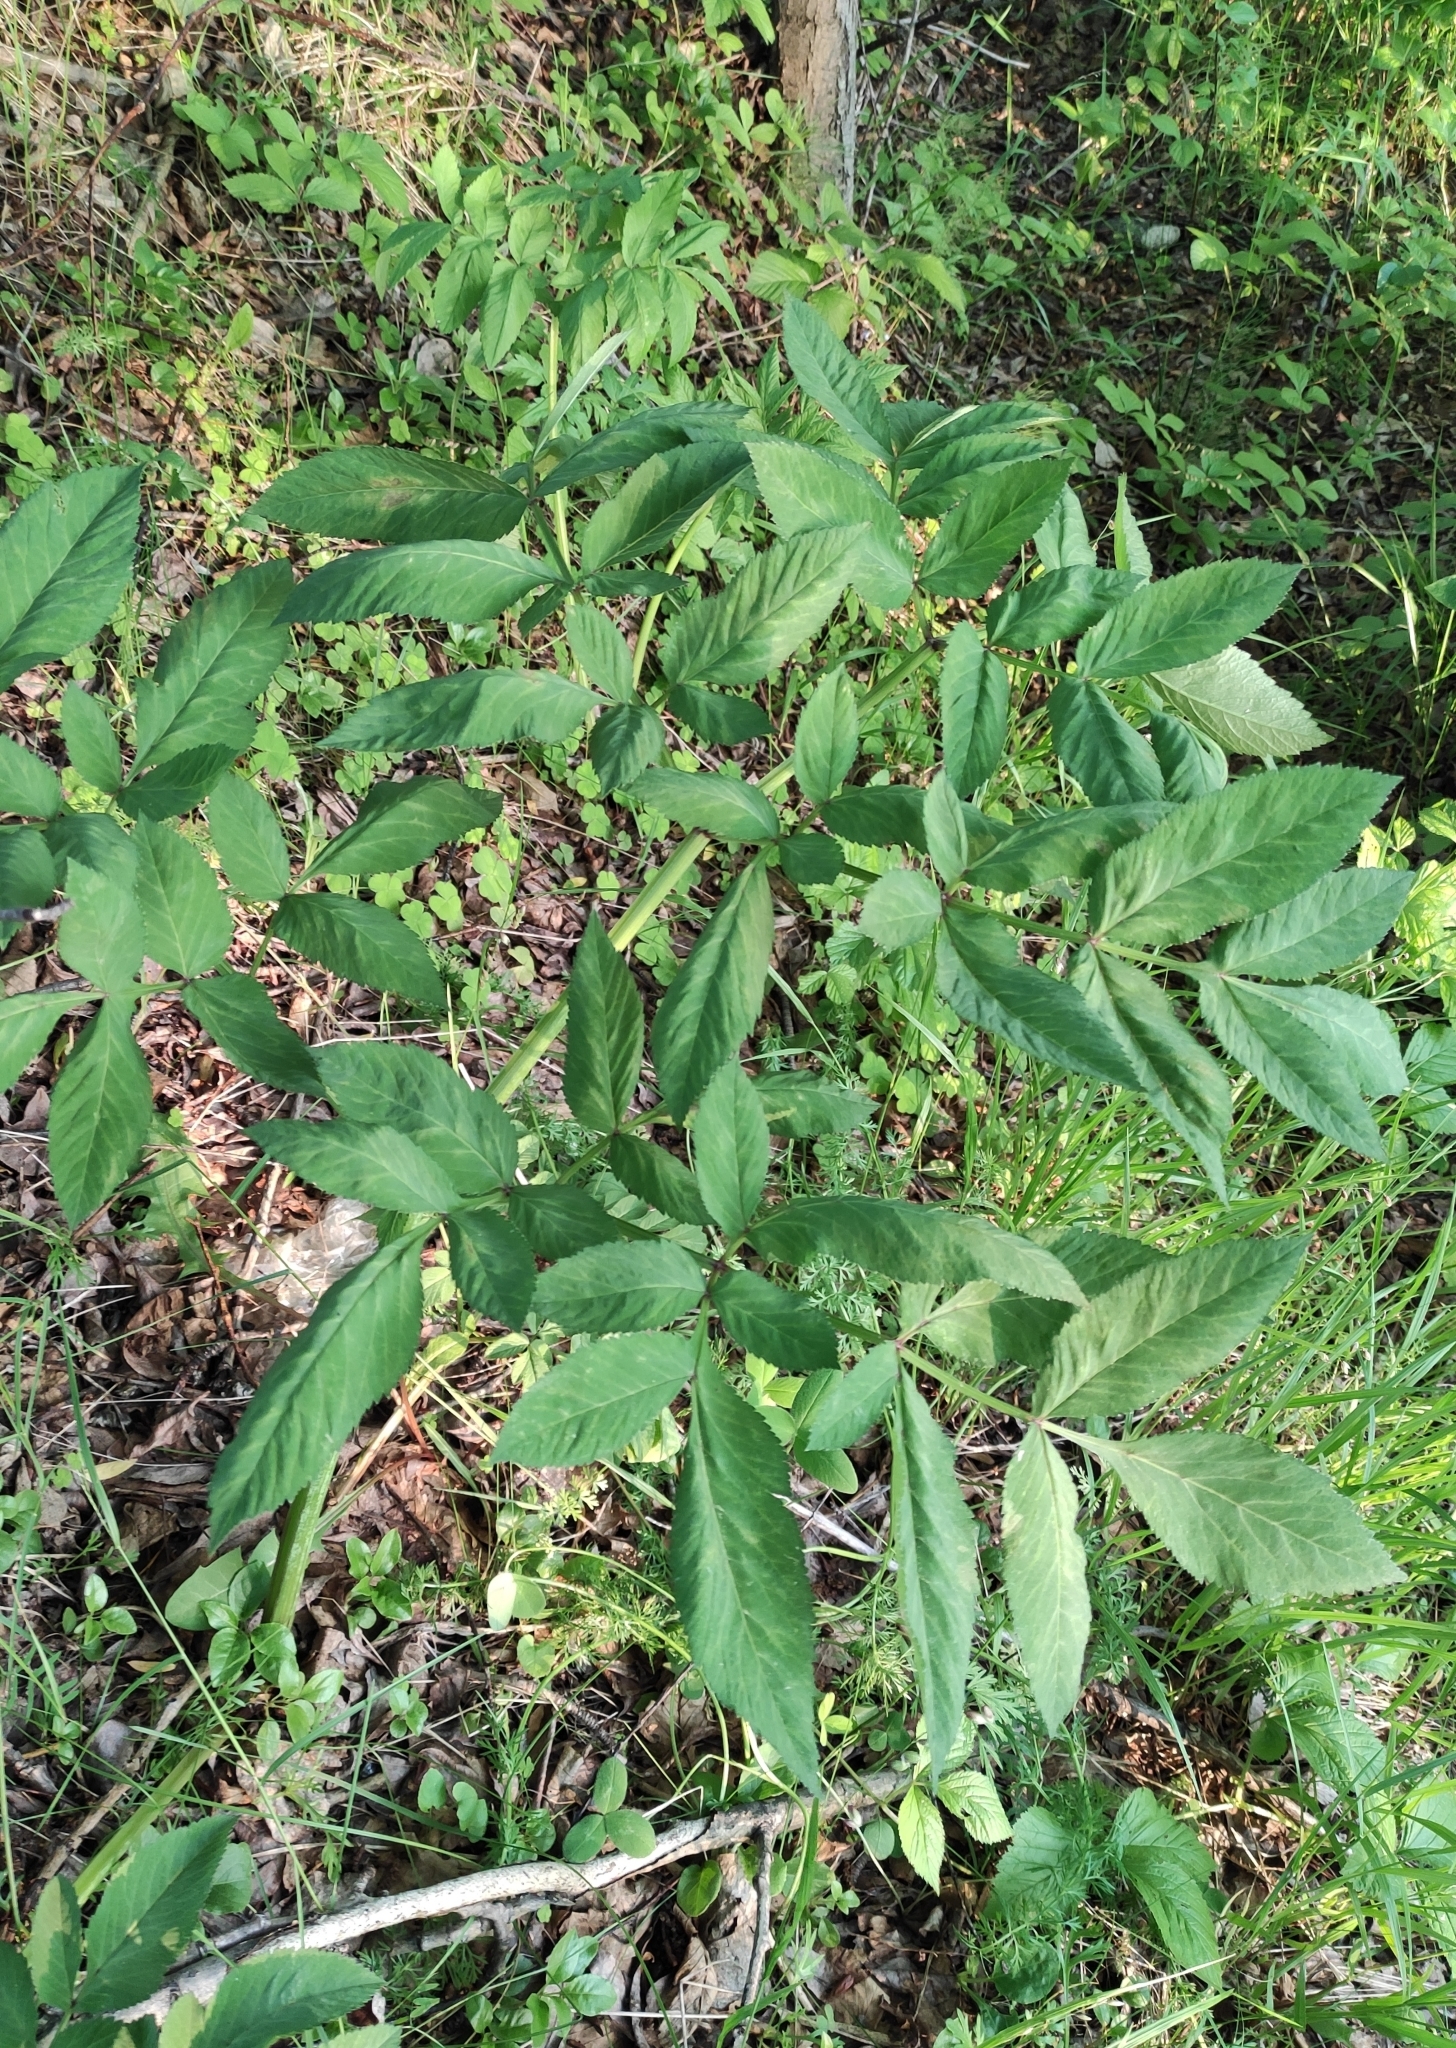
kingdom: Plantae
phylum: Tracheophyta
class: Magnoliopsida
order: Apiales
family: Apiaceae
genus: Angelica
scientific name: Angelica sylvestris
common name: Wild angelica
